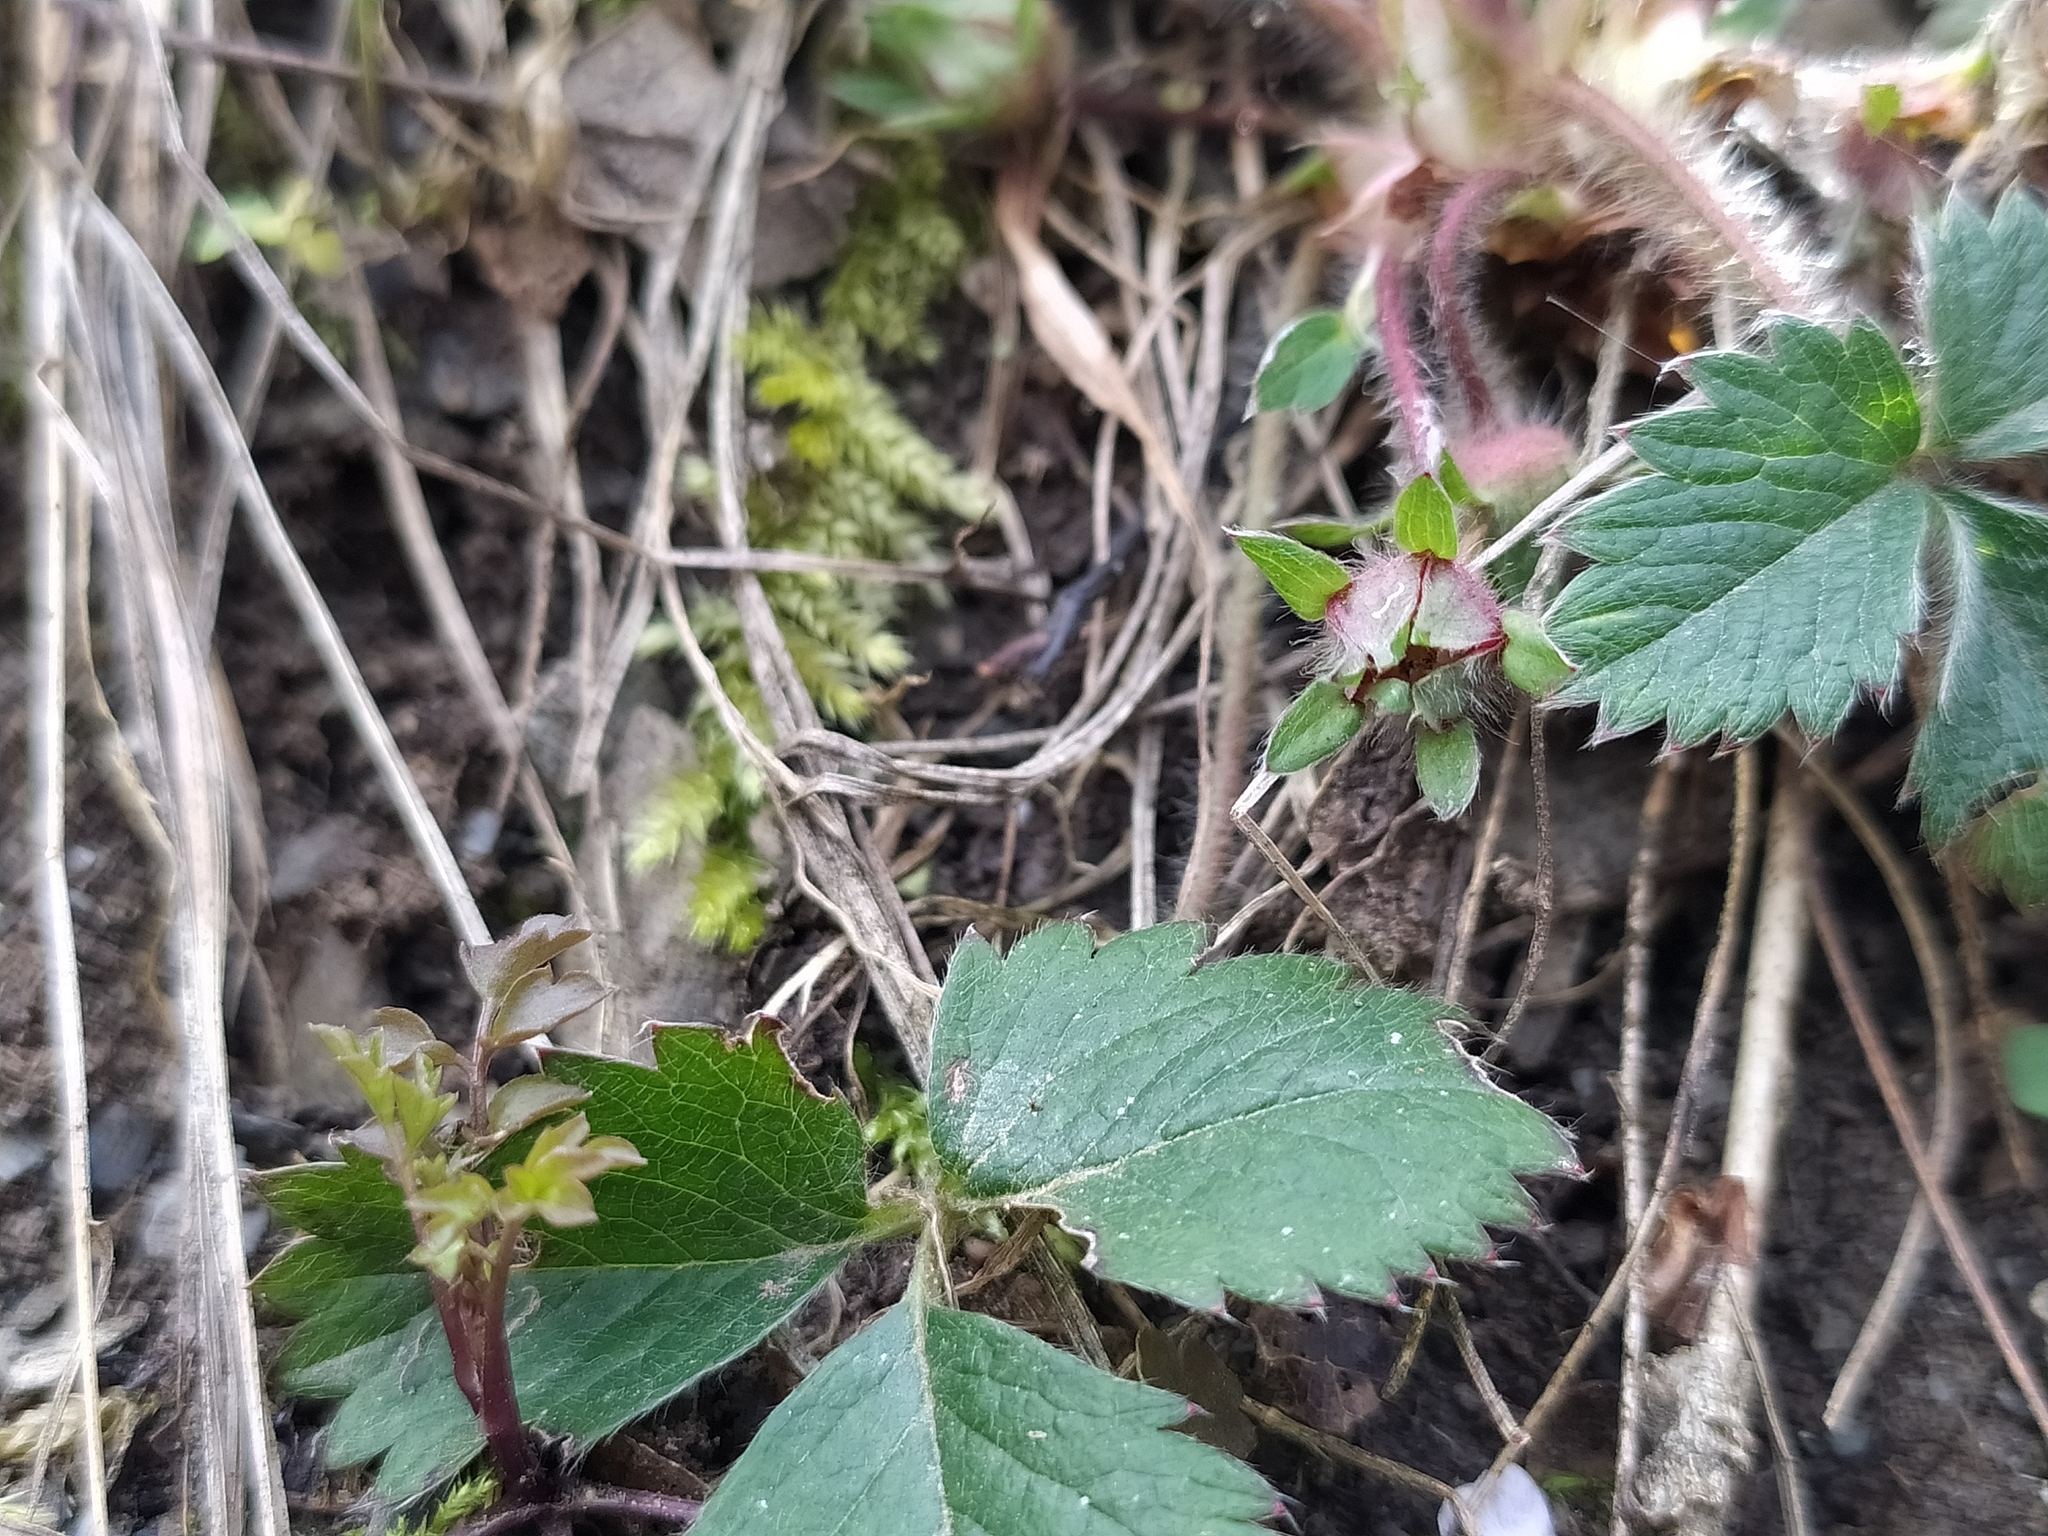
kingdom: Plantae
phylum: Tracheophyta
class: Magnoliopsida
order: Rosales
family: Rosaceae
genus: Potentilla
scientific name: Potentilla micrantha
